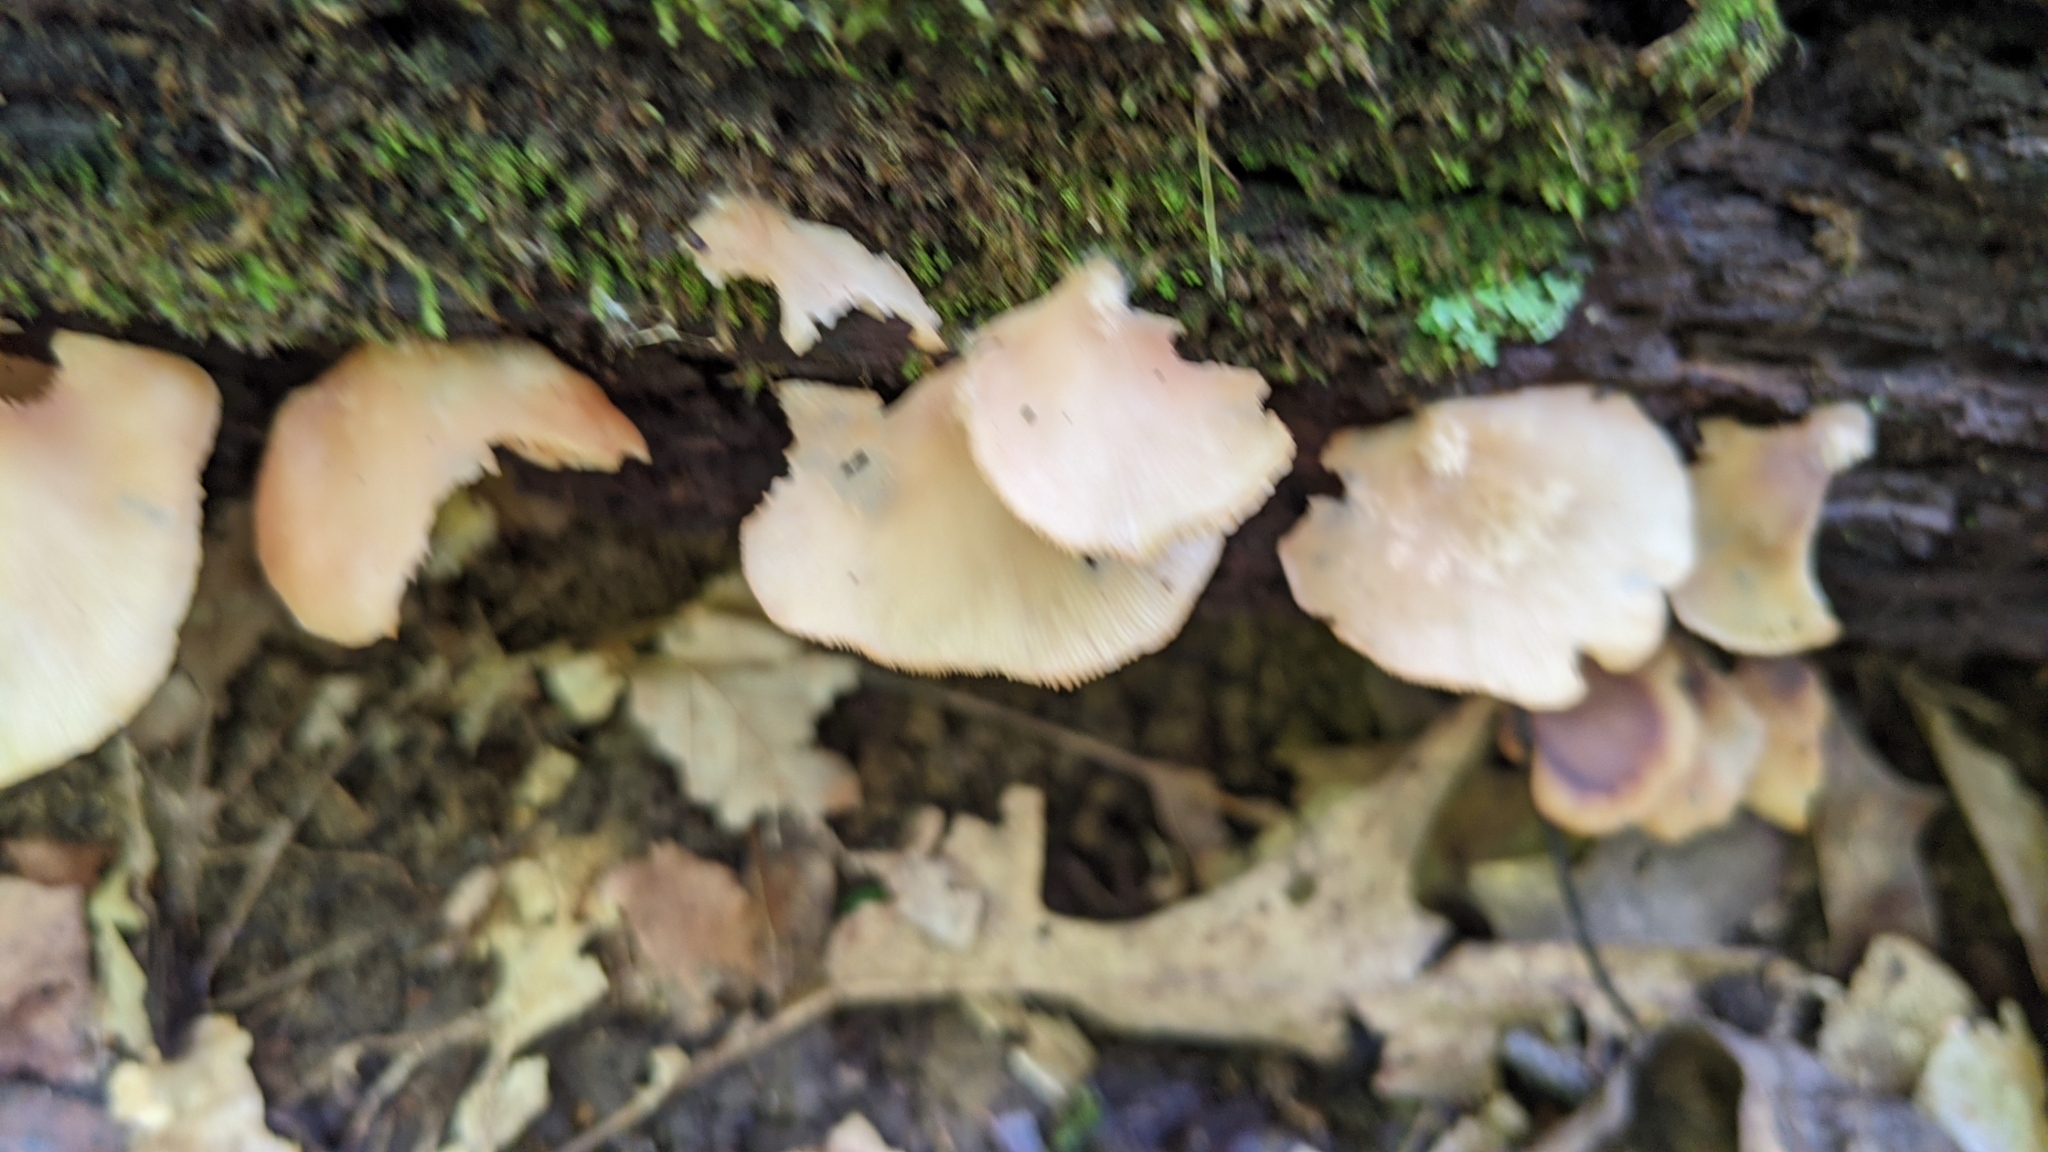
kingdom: Fungi
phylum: Basidiomycota
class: Agaricomycetes
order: Agaricales
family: Crepidotaceae
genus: Crepidotus
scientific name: Crepidotus applanatus
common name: Flat crep
